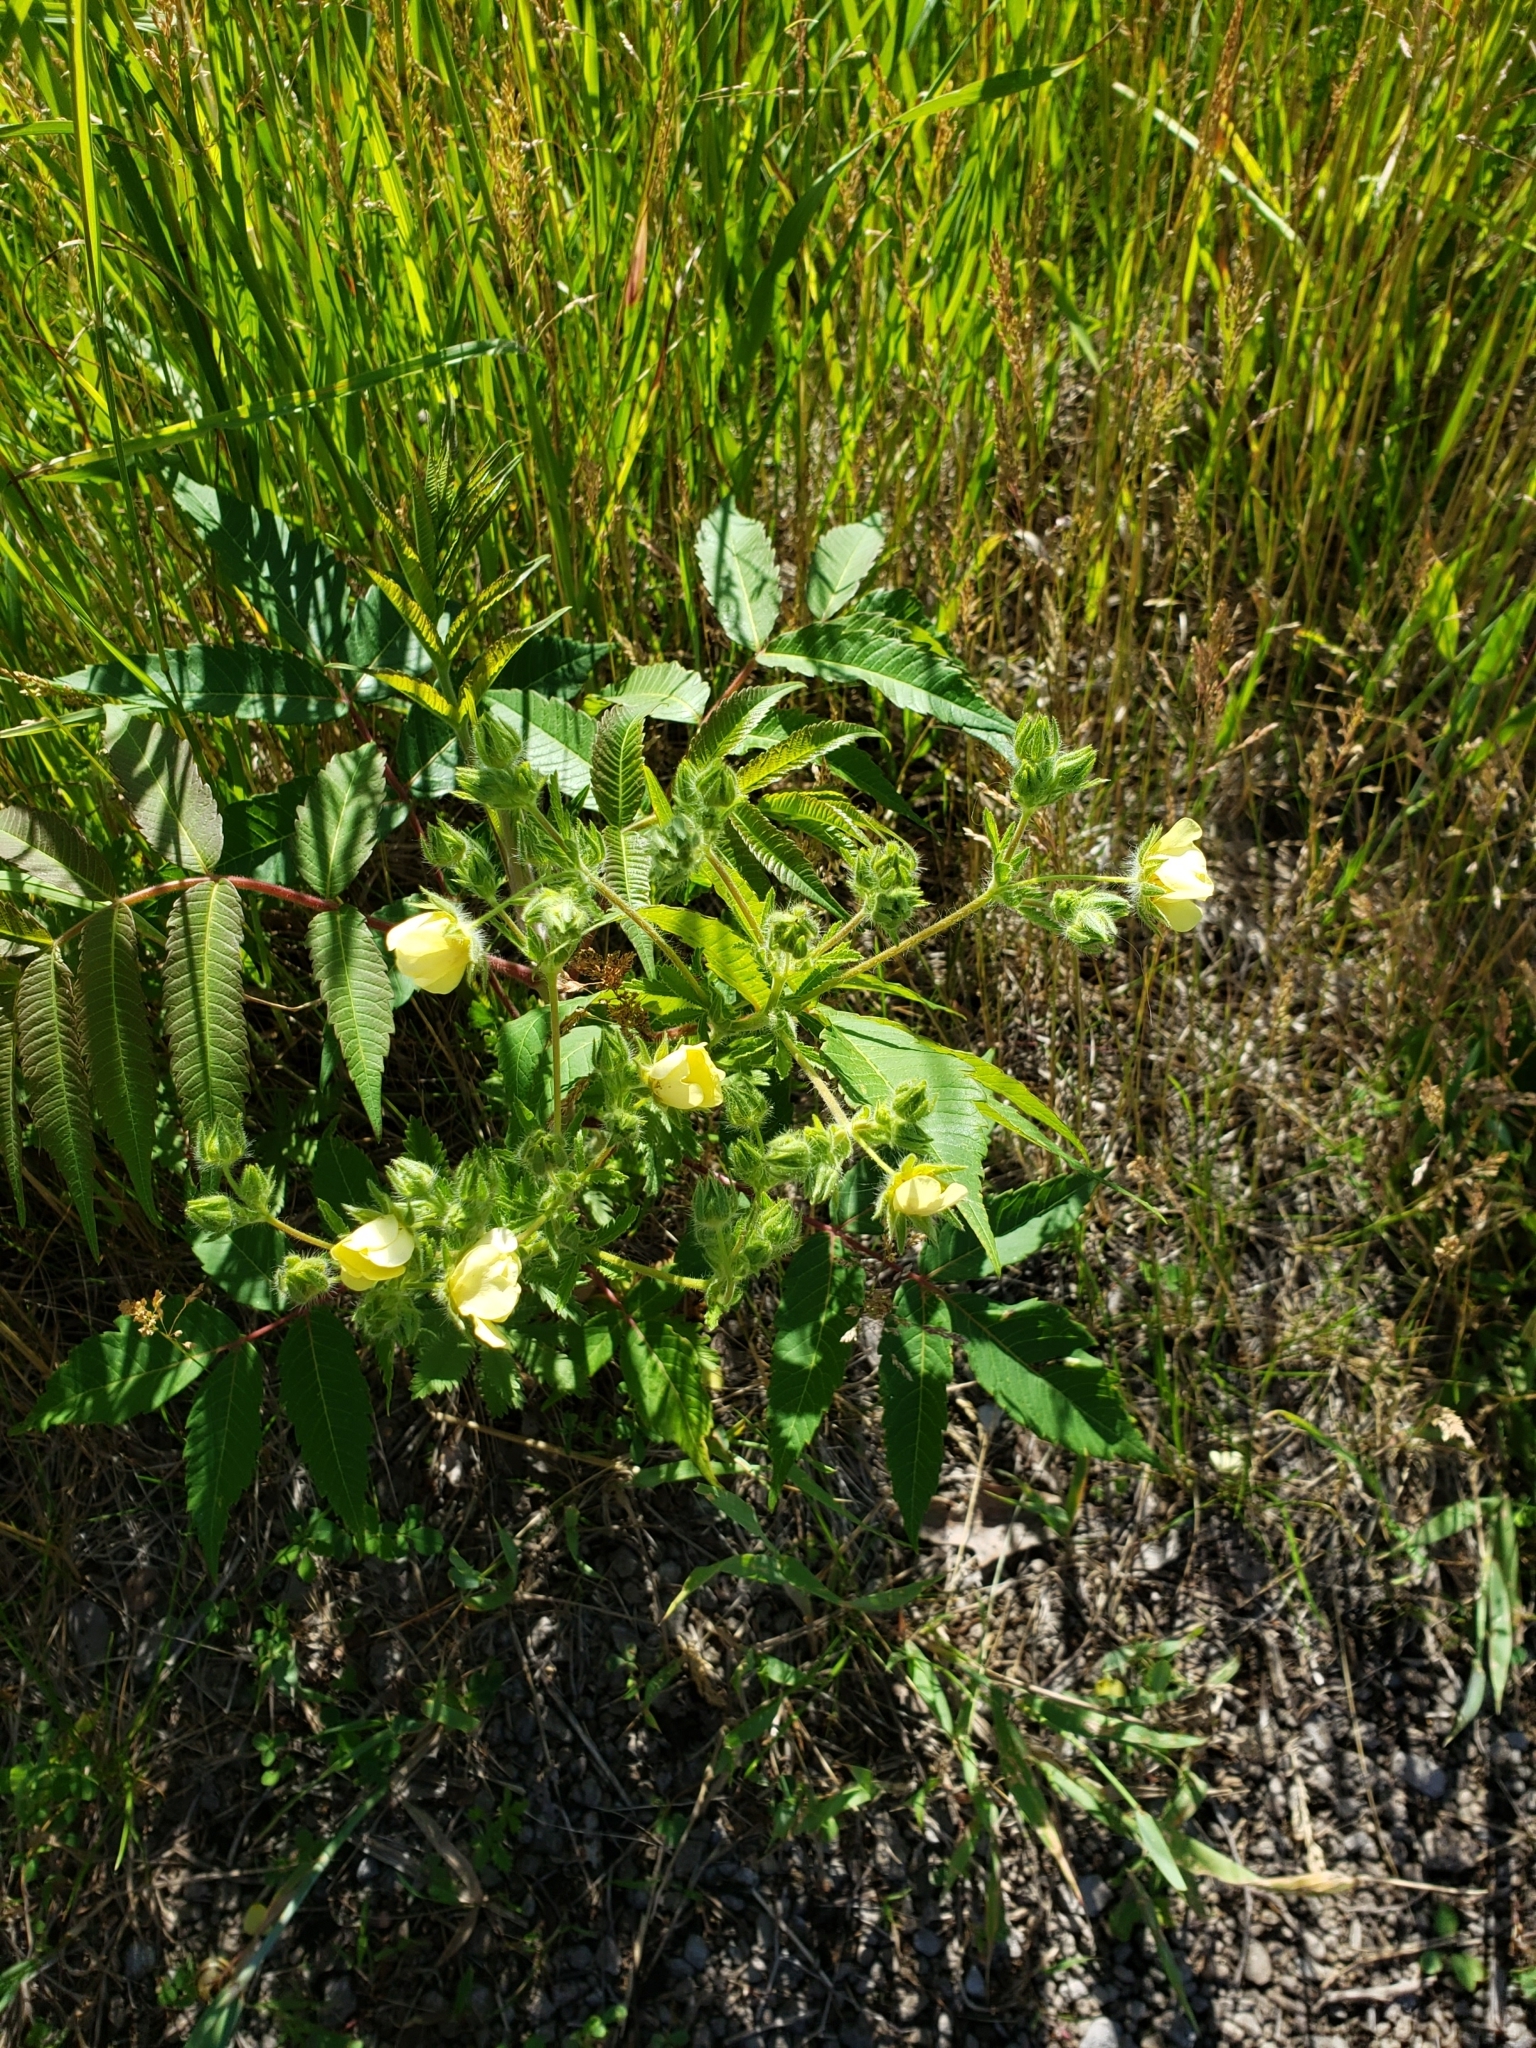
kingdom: Plantae
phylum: Tracheophyta
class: Magnoliopsida
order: Rosales
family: Rosaceae
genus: Potentilla
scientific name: Potentilla recta
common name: Sulphur cinquefoil
